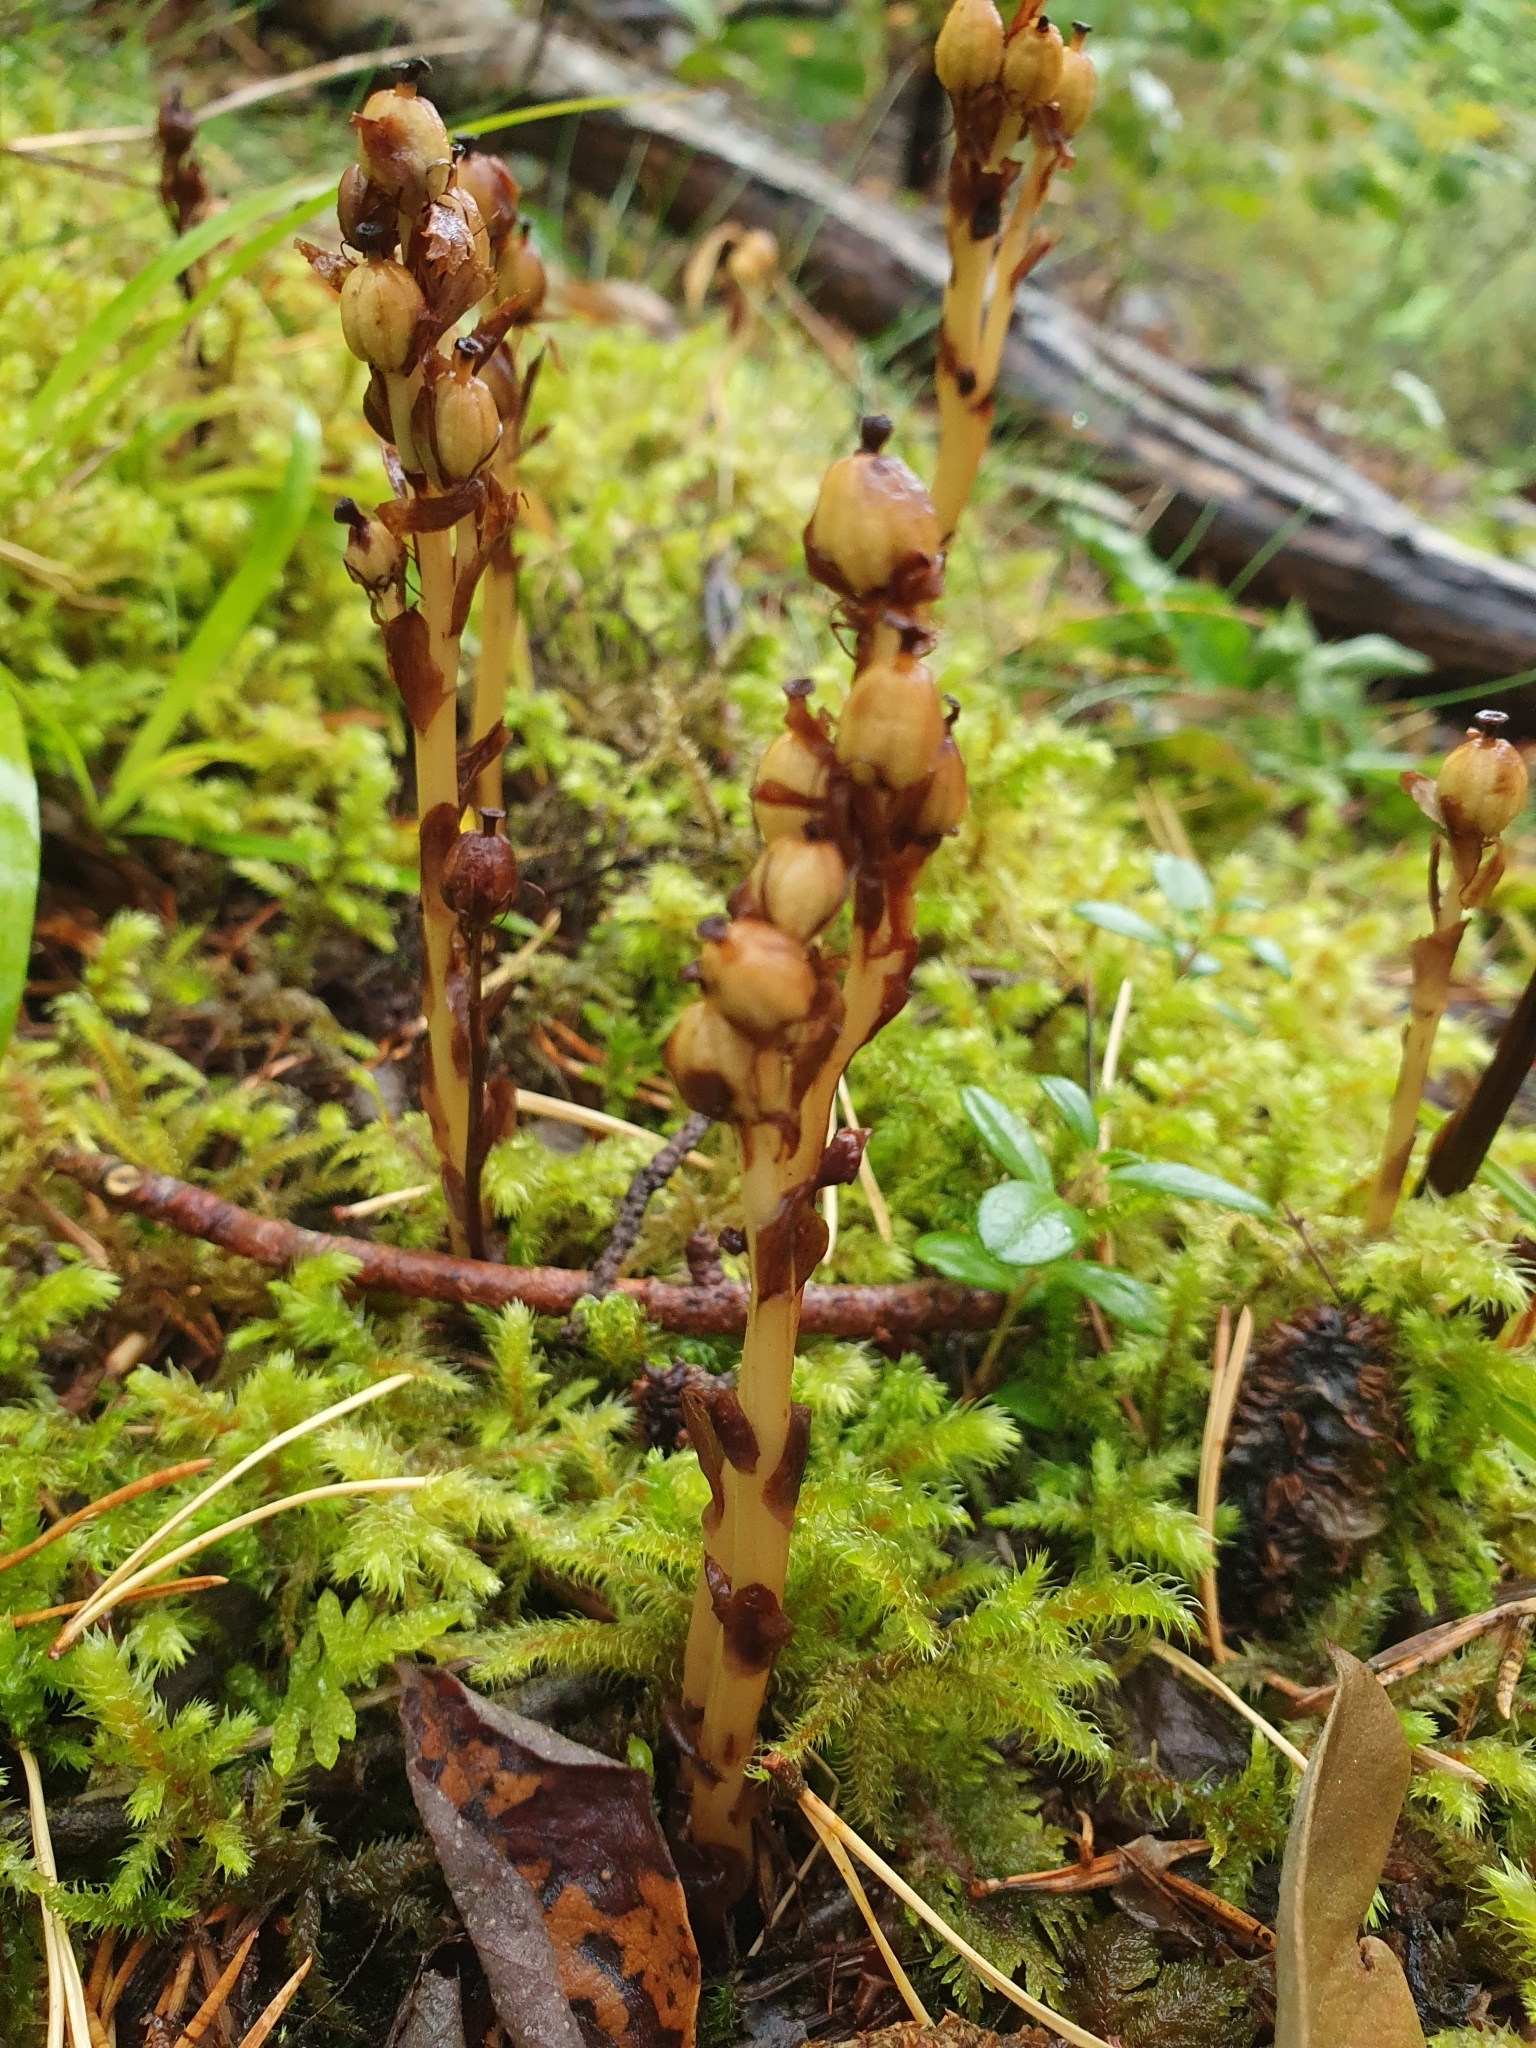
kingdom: Plantae
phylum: Tracheophyta
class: Magnoliopsida
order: Ericales
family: Ericaceae
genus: Hypopitys
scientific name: Hypopitys hypophegea
